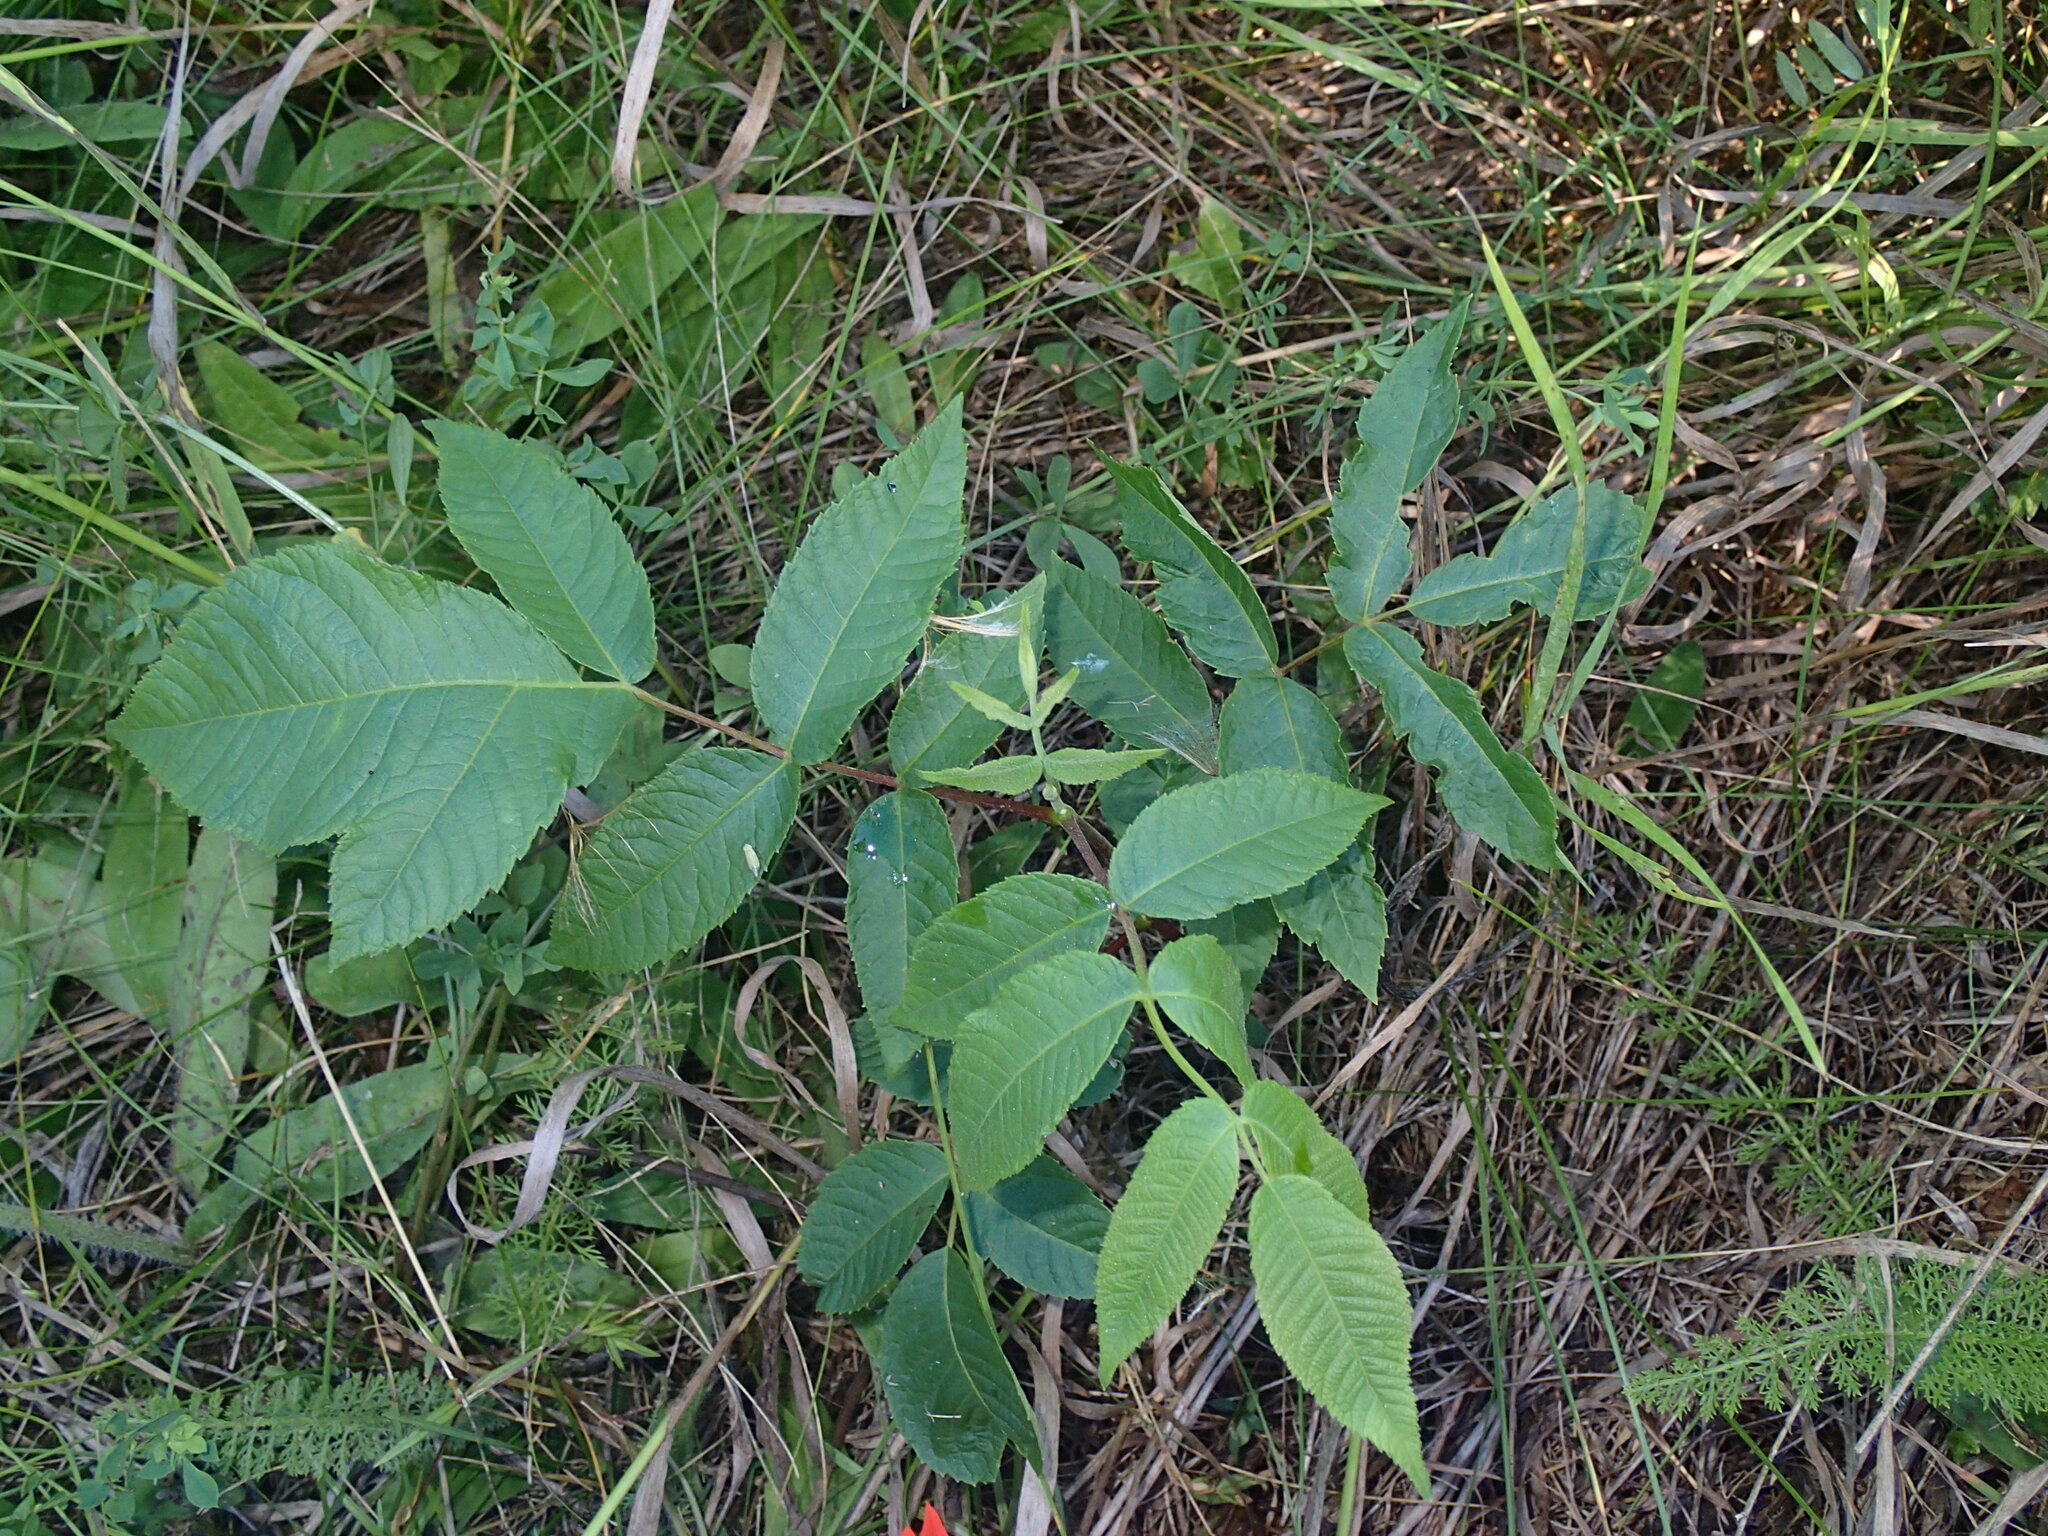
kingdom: Plantae
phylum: Tracheophyta
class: Magnoliopsida
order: Fagales
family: Juglandaceae
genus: Juglans
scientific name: Juglans cinerea
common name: Butternut
